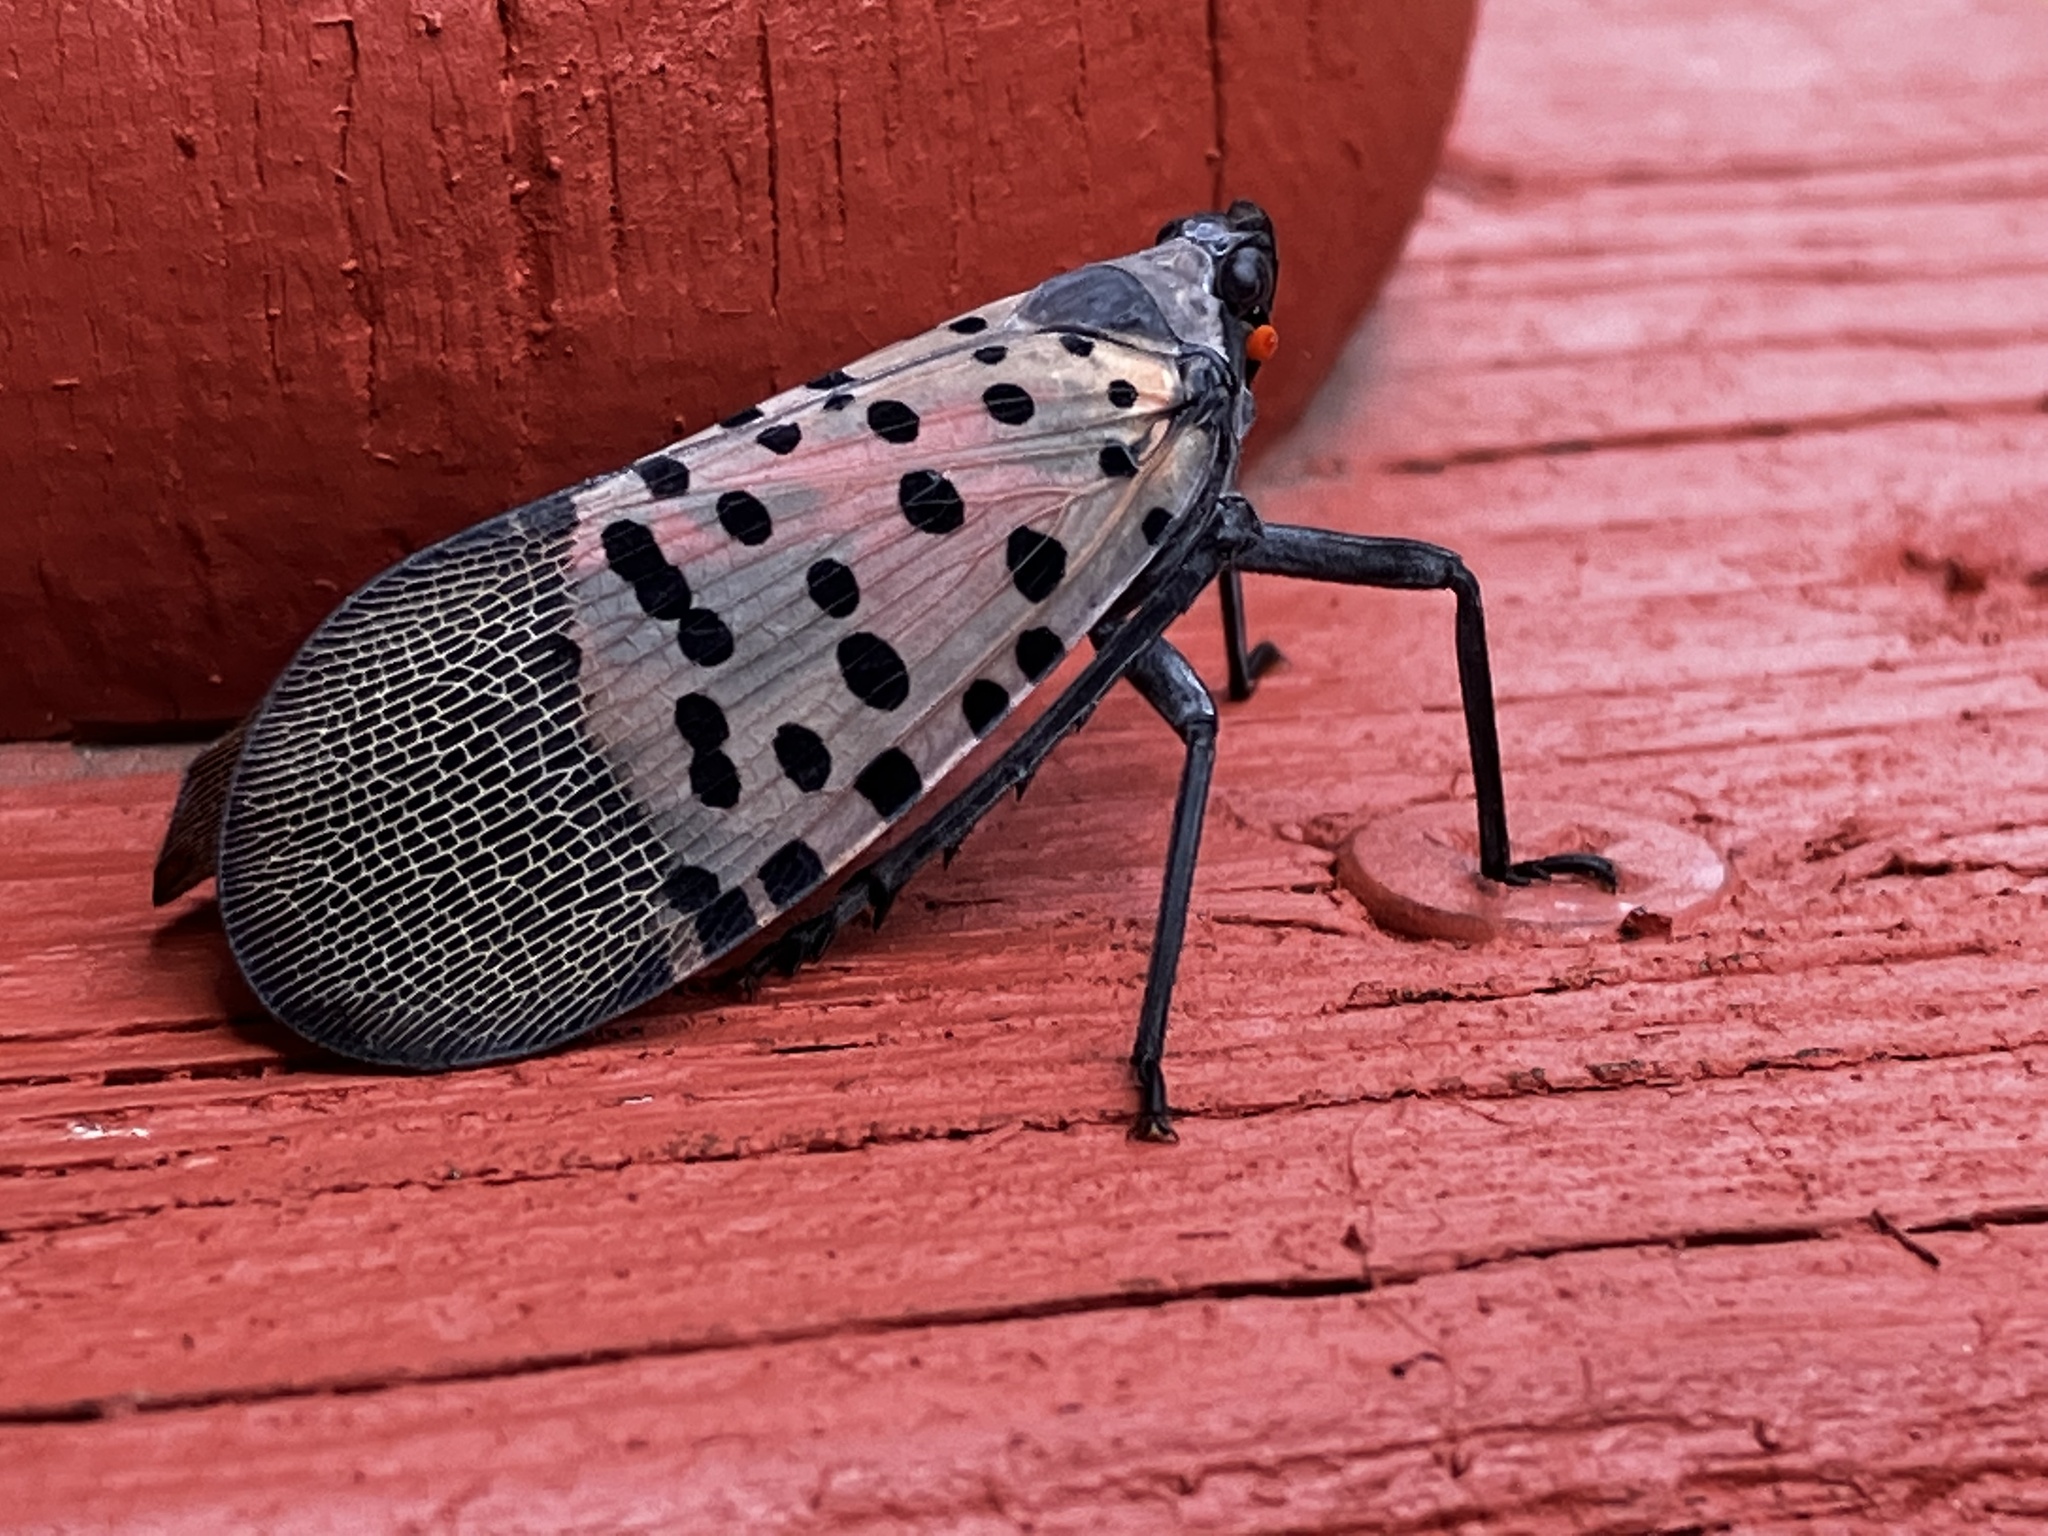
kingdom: Animalia
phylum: Arthropoda
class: Insecta
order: Hemiptera
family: Fulgoridae
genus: Lycorma
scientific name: Lycorma delicatula
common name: Spotted lanternfly
